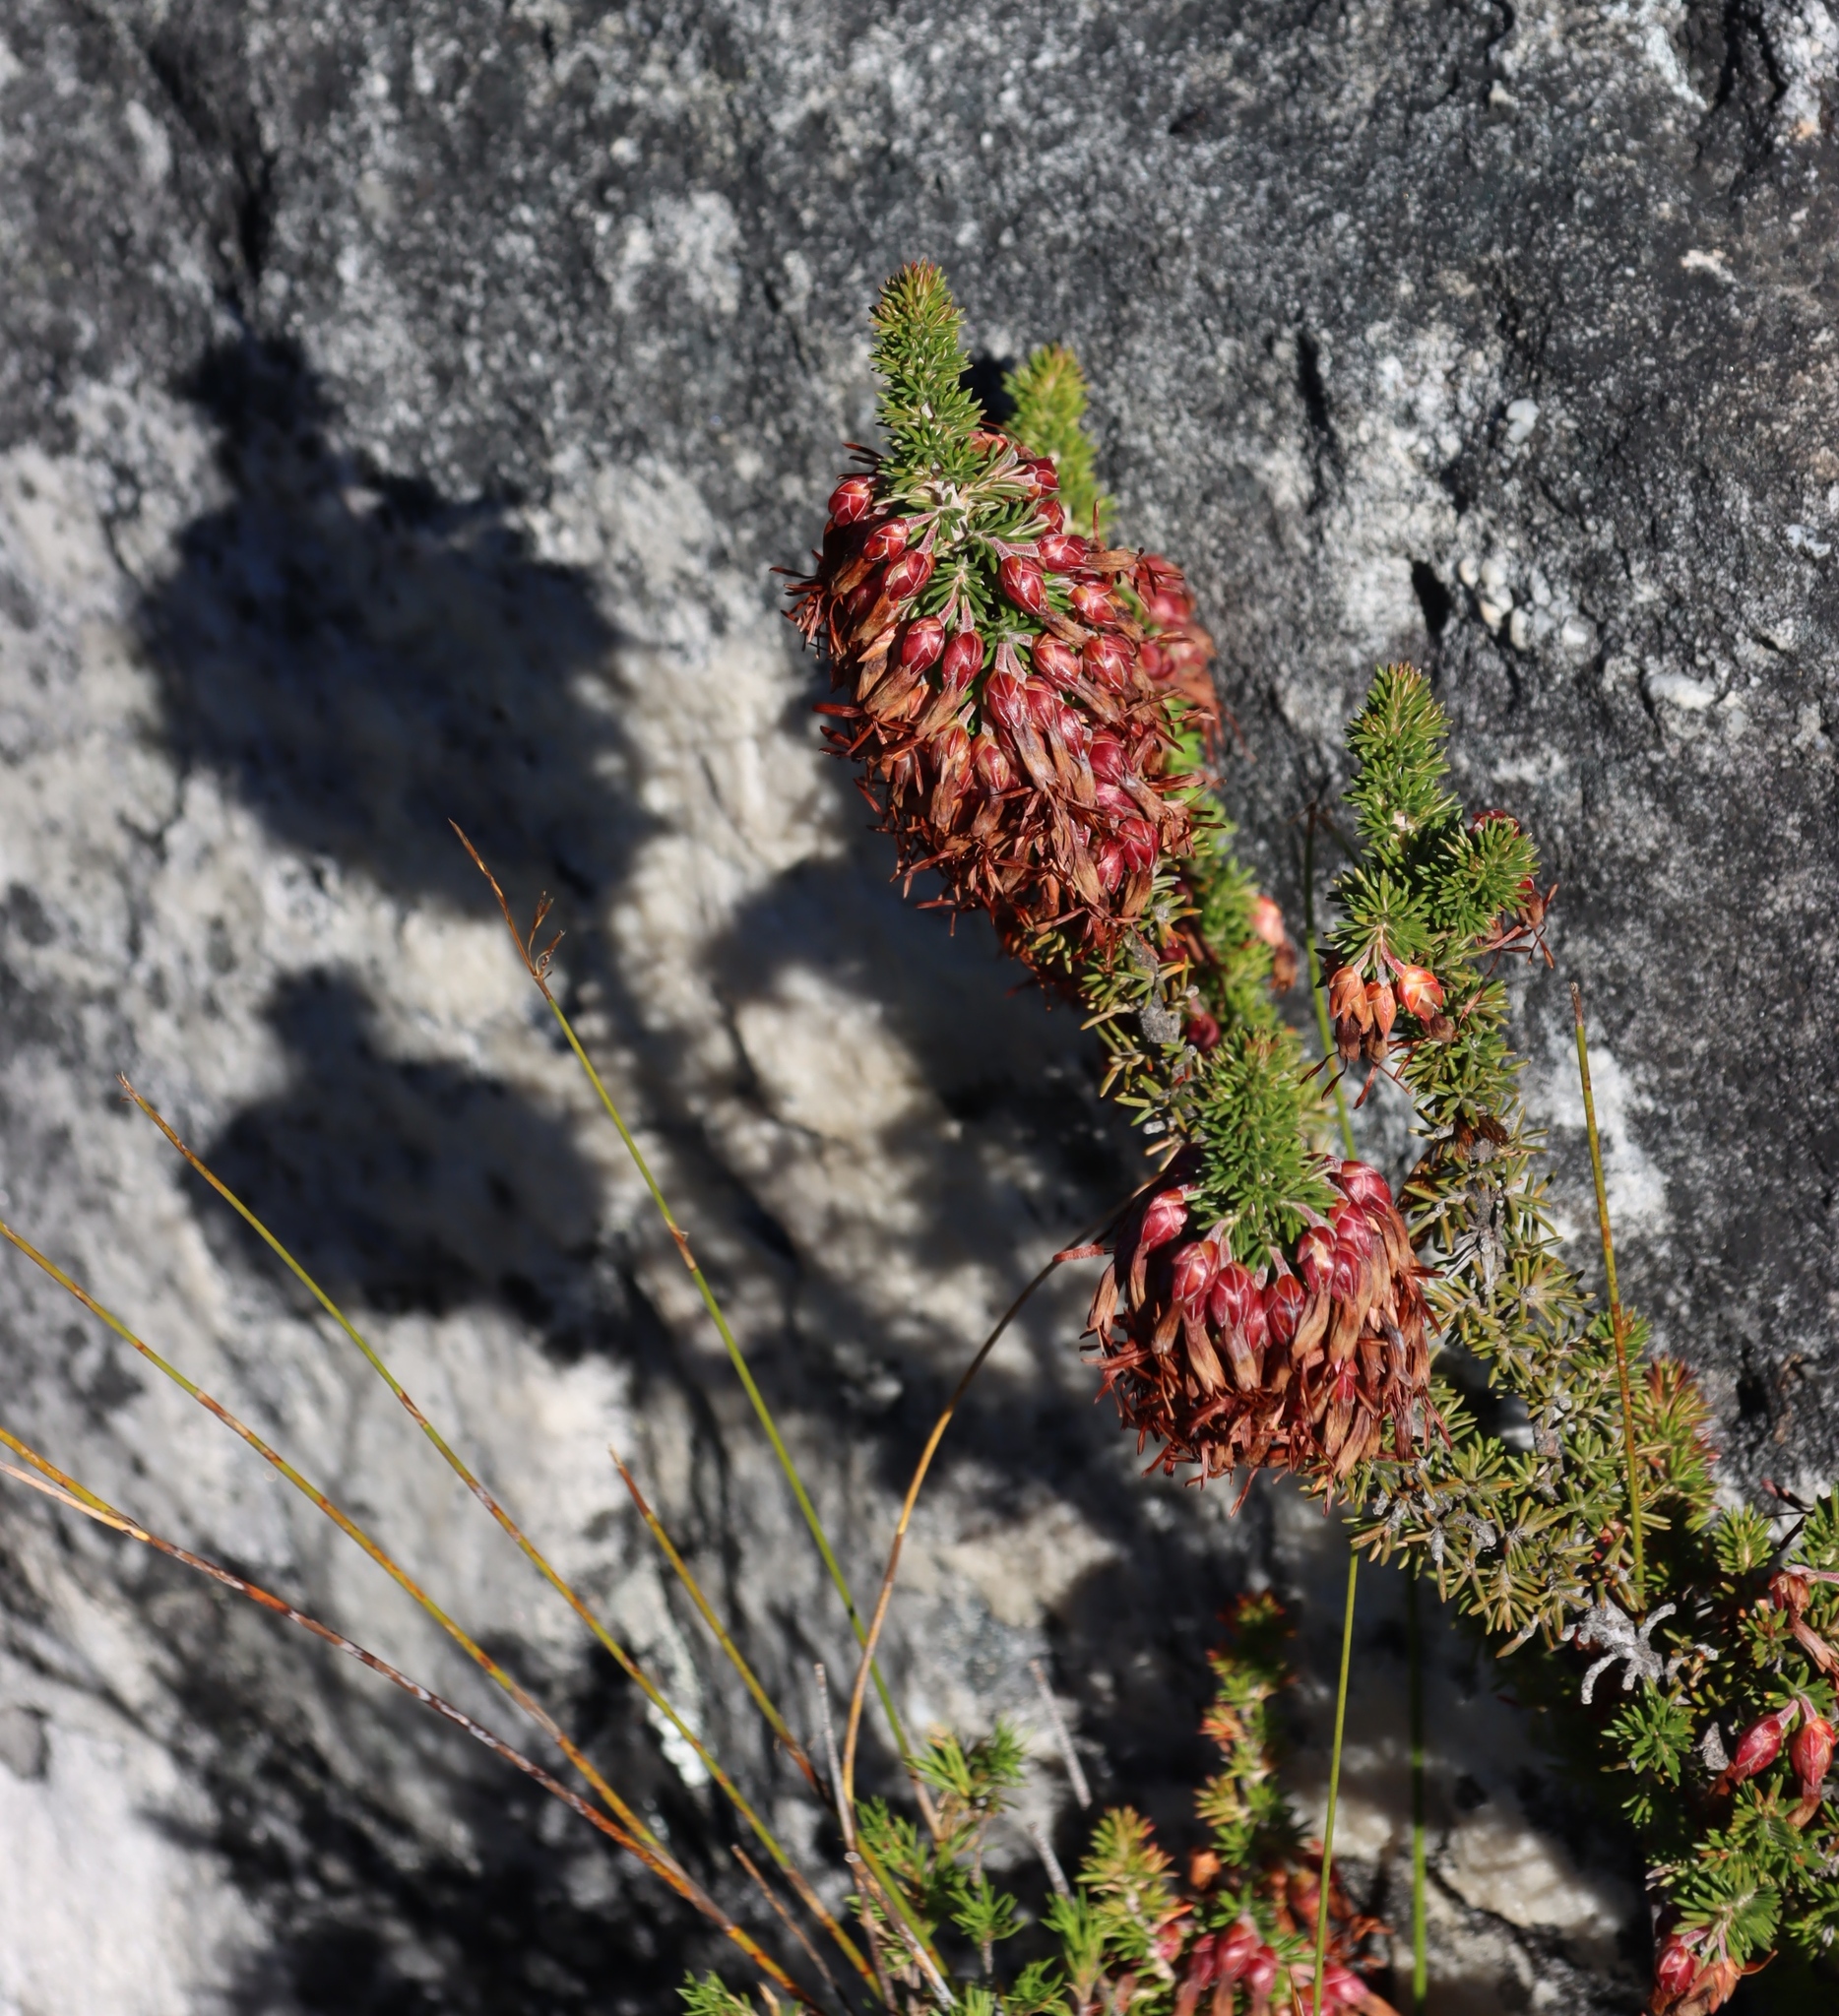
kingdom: Plantae
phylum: Tracheophyta
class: Magnoliopsida
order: Ericales
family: Ericaceae
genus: Erica
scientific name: Erica coccinea
